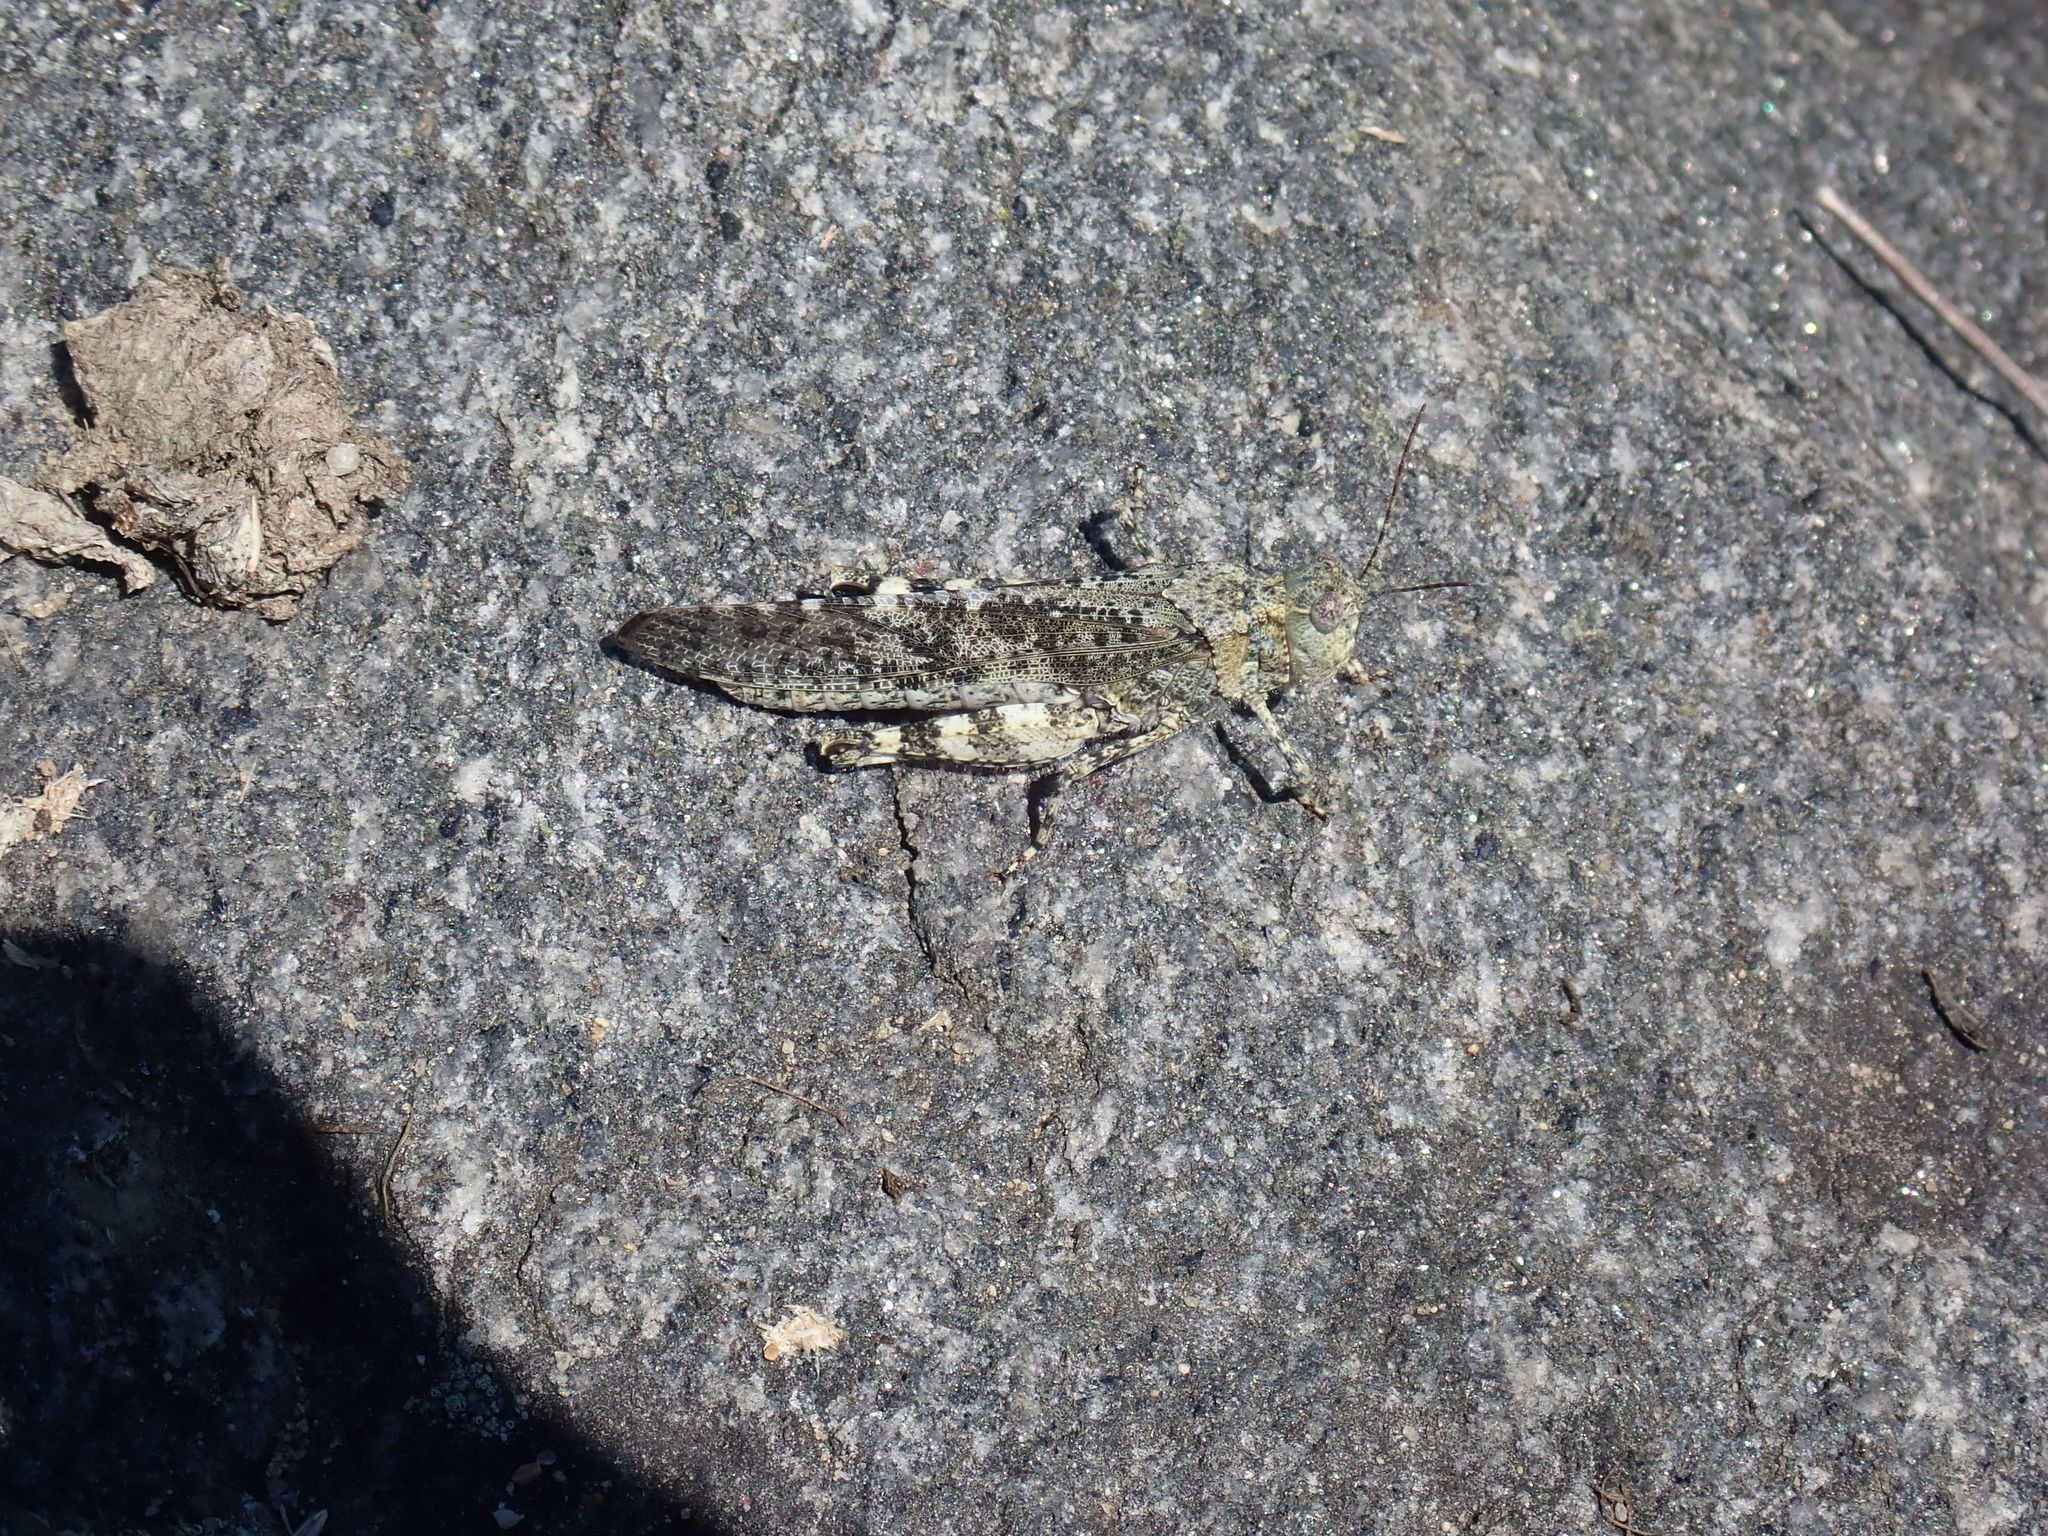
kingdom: Animalia
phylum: Arthropoda
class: Insecta
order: Orthoptera
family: Acrididae
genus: Trimerotropis
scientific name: Trimerotropis verruculata
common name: Crackling forest grasshopper
